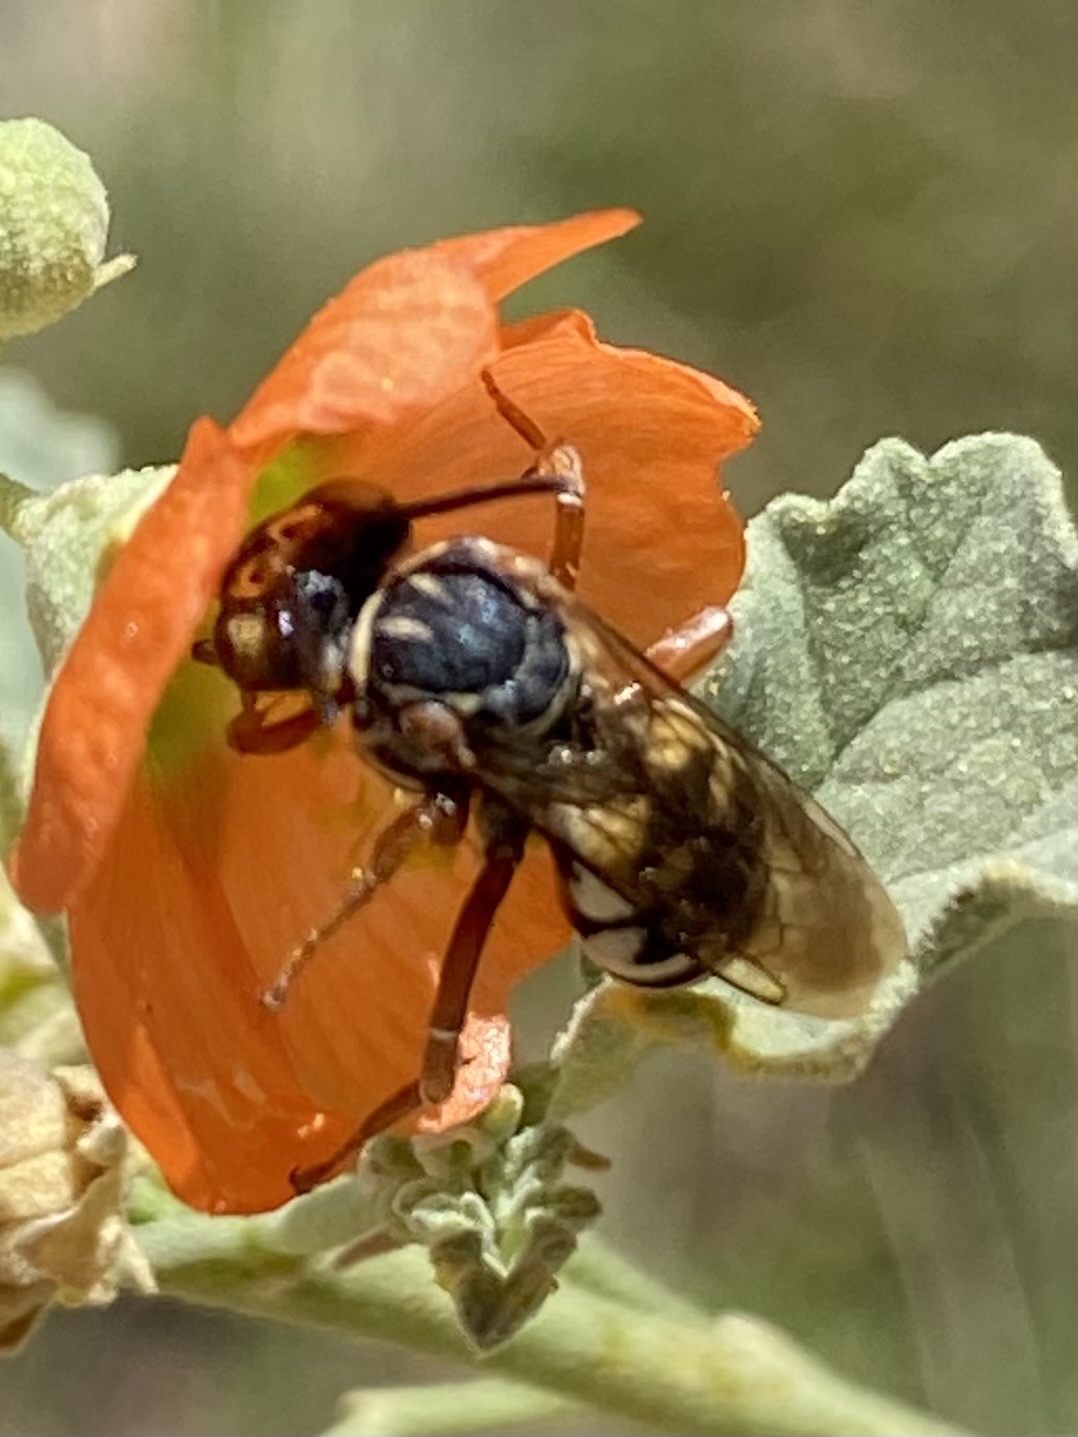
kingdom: Animalia
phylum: Arthropoda
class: Insecta
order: Hymenoptera
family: Apidae
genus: Triepeolus
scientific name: Triepeolus
